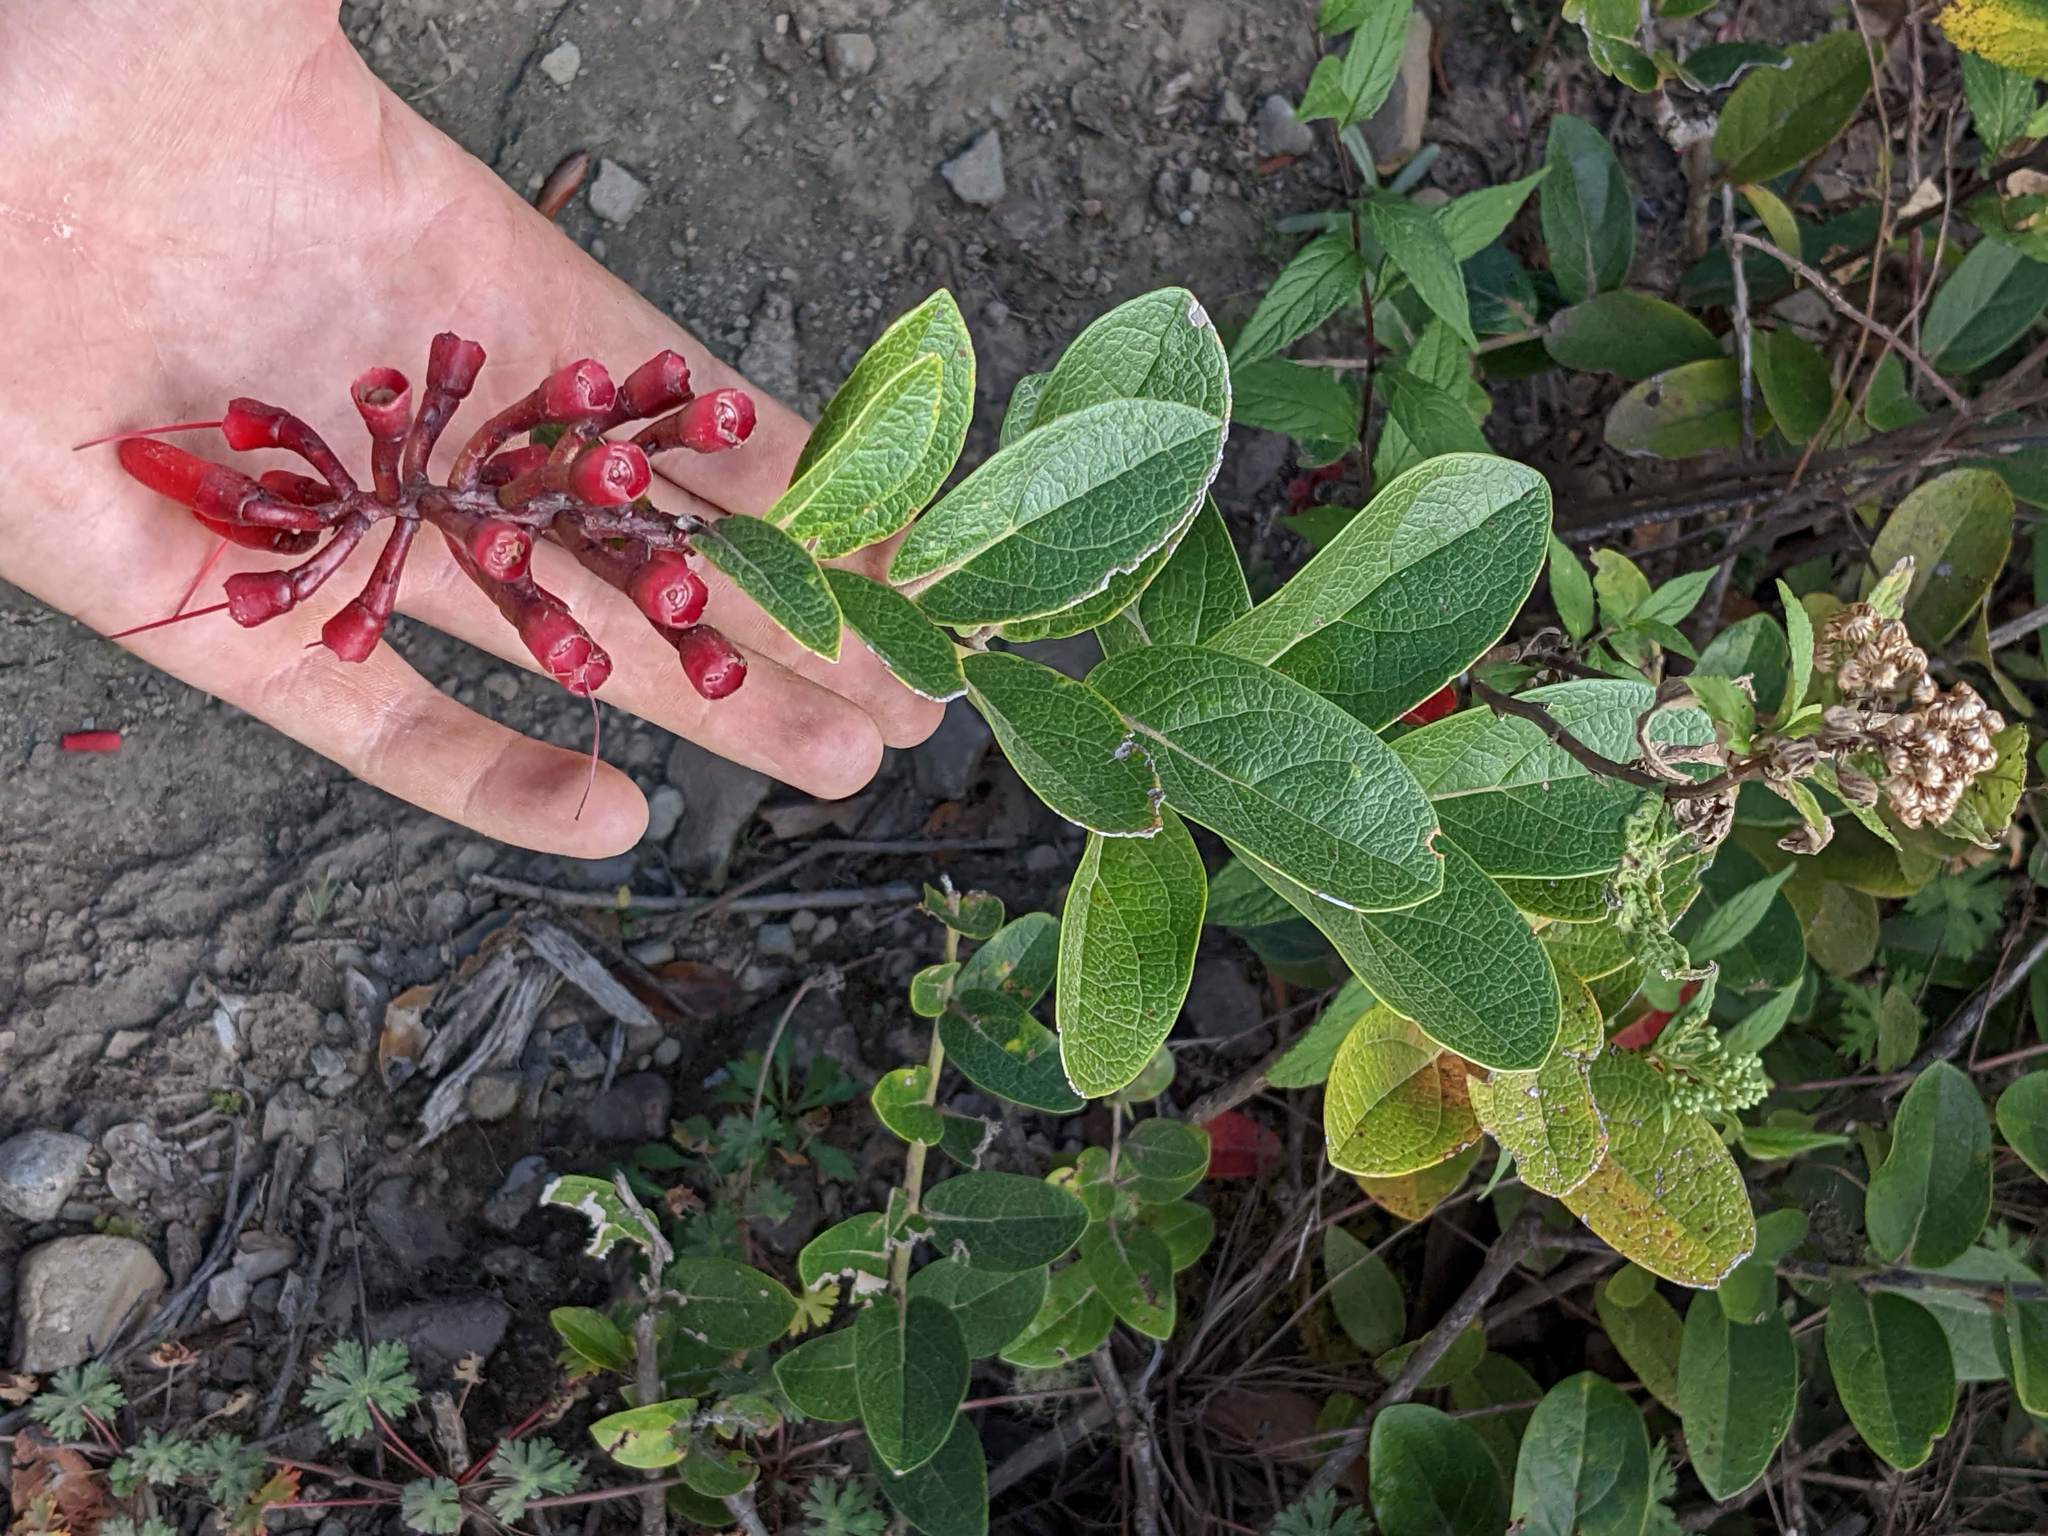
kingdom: Plantae
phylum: Tracheophyta
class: Magnoliopsida
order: Ericales
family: Ericaceae
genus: Macleania
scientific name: Macleania rupestris
